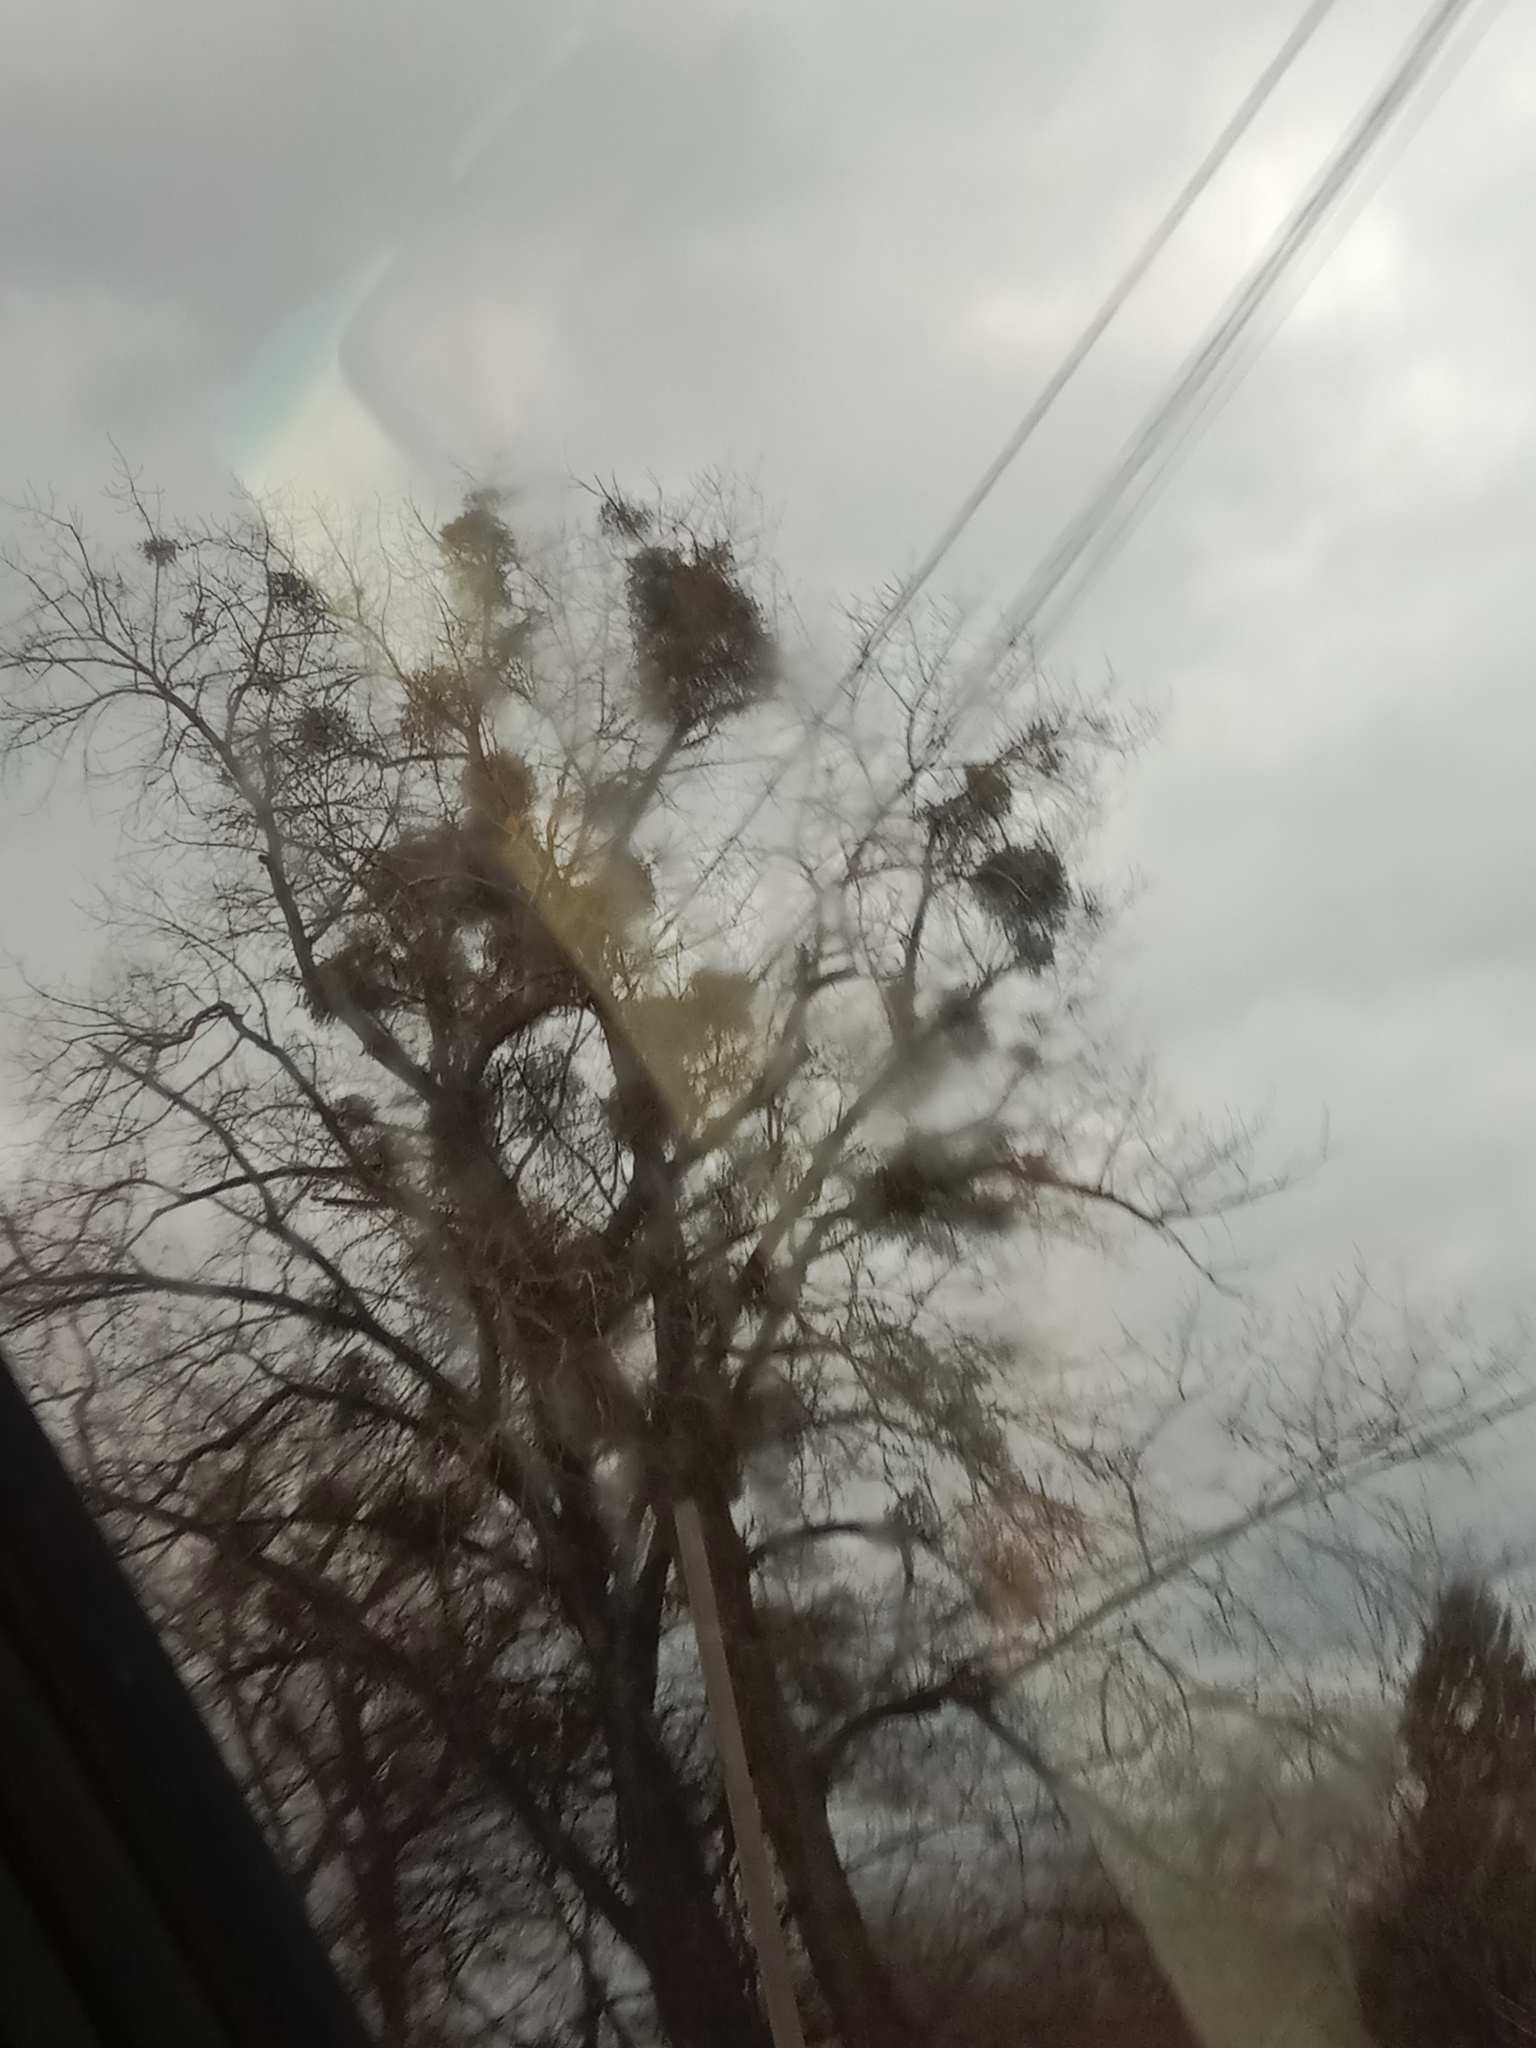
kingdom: Plantae
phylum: Tracheophyta
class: Magnoliopsida
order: Santalales
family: Viscaceae
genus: Viscum
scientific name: Viscum album
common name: Mistletoe
